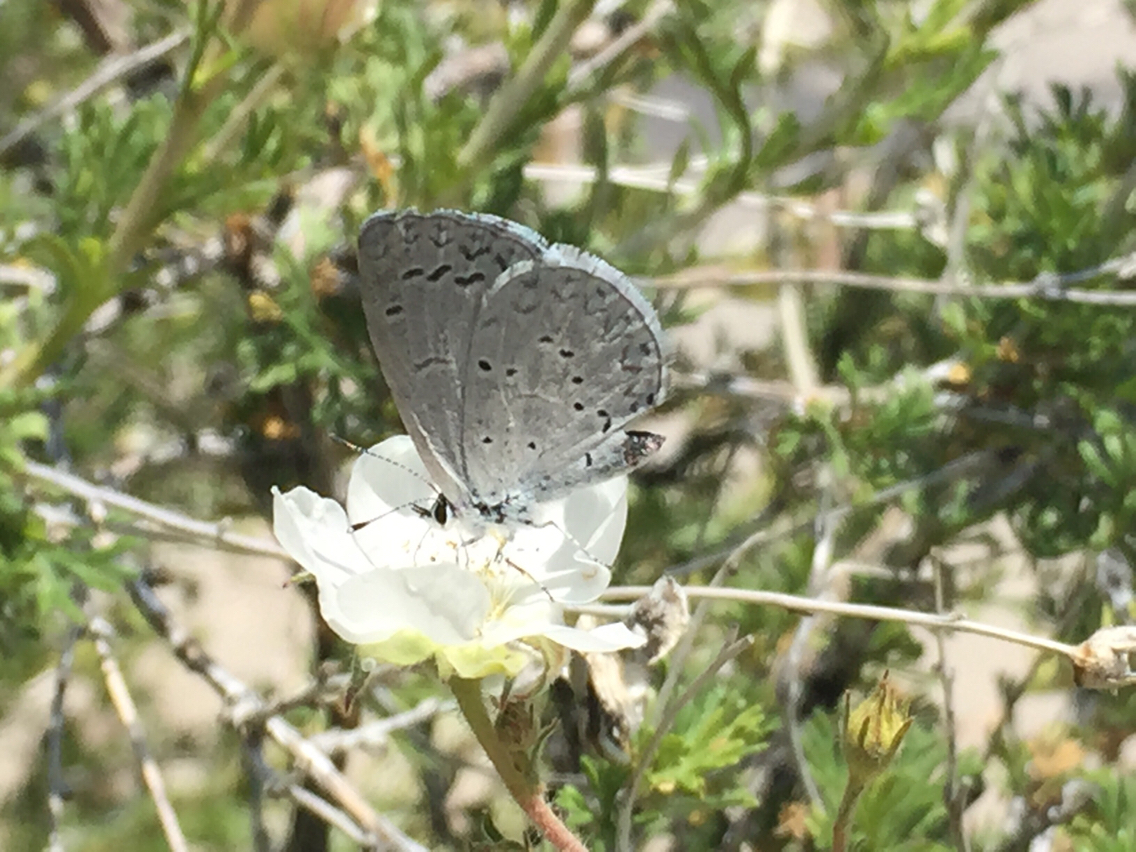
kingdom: Animalia
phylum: Arthropoda
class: Insecta
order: Lepidoptera
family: Lycaenidae
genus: Celastrina
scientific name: Celastrina argiolus
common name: Holly blue
